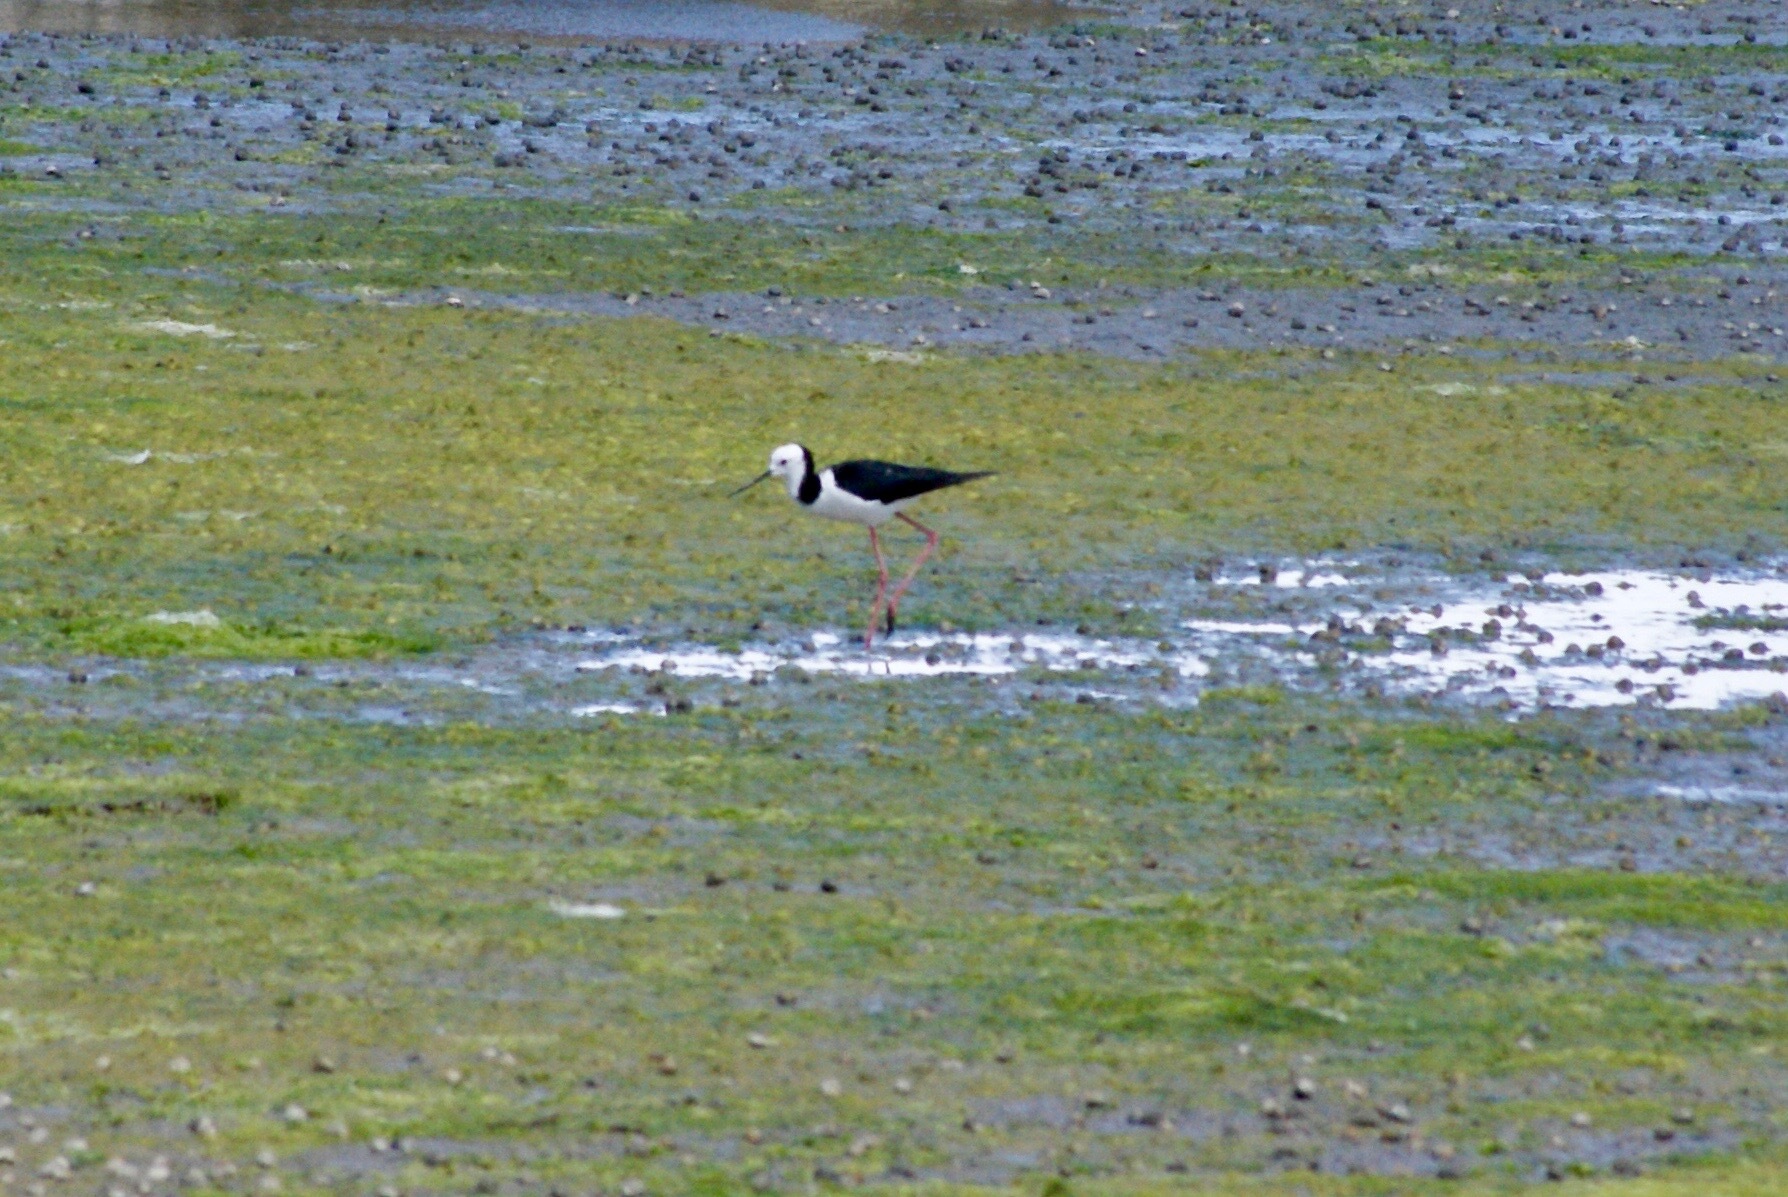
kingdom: Animalia
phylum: Chordata
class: Aves
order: Charadriiformes
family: Recurvirostridae
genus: Himantopus
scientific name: Himantopus leucocephalus
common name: White-headed stilt
